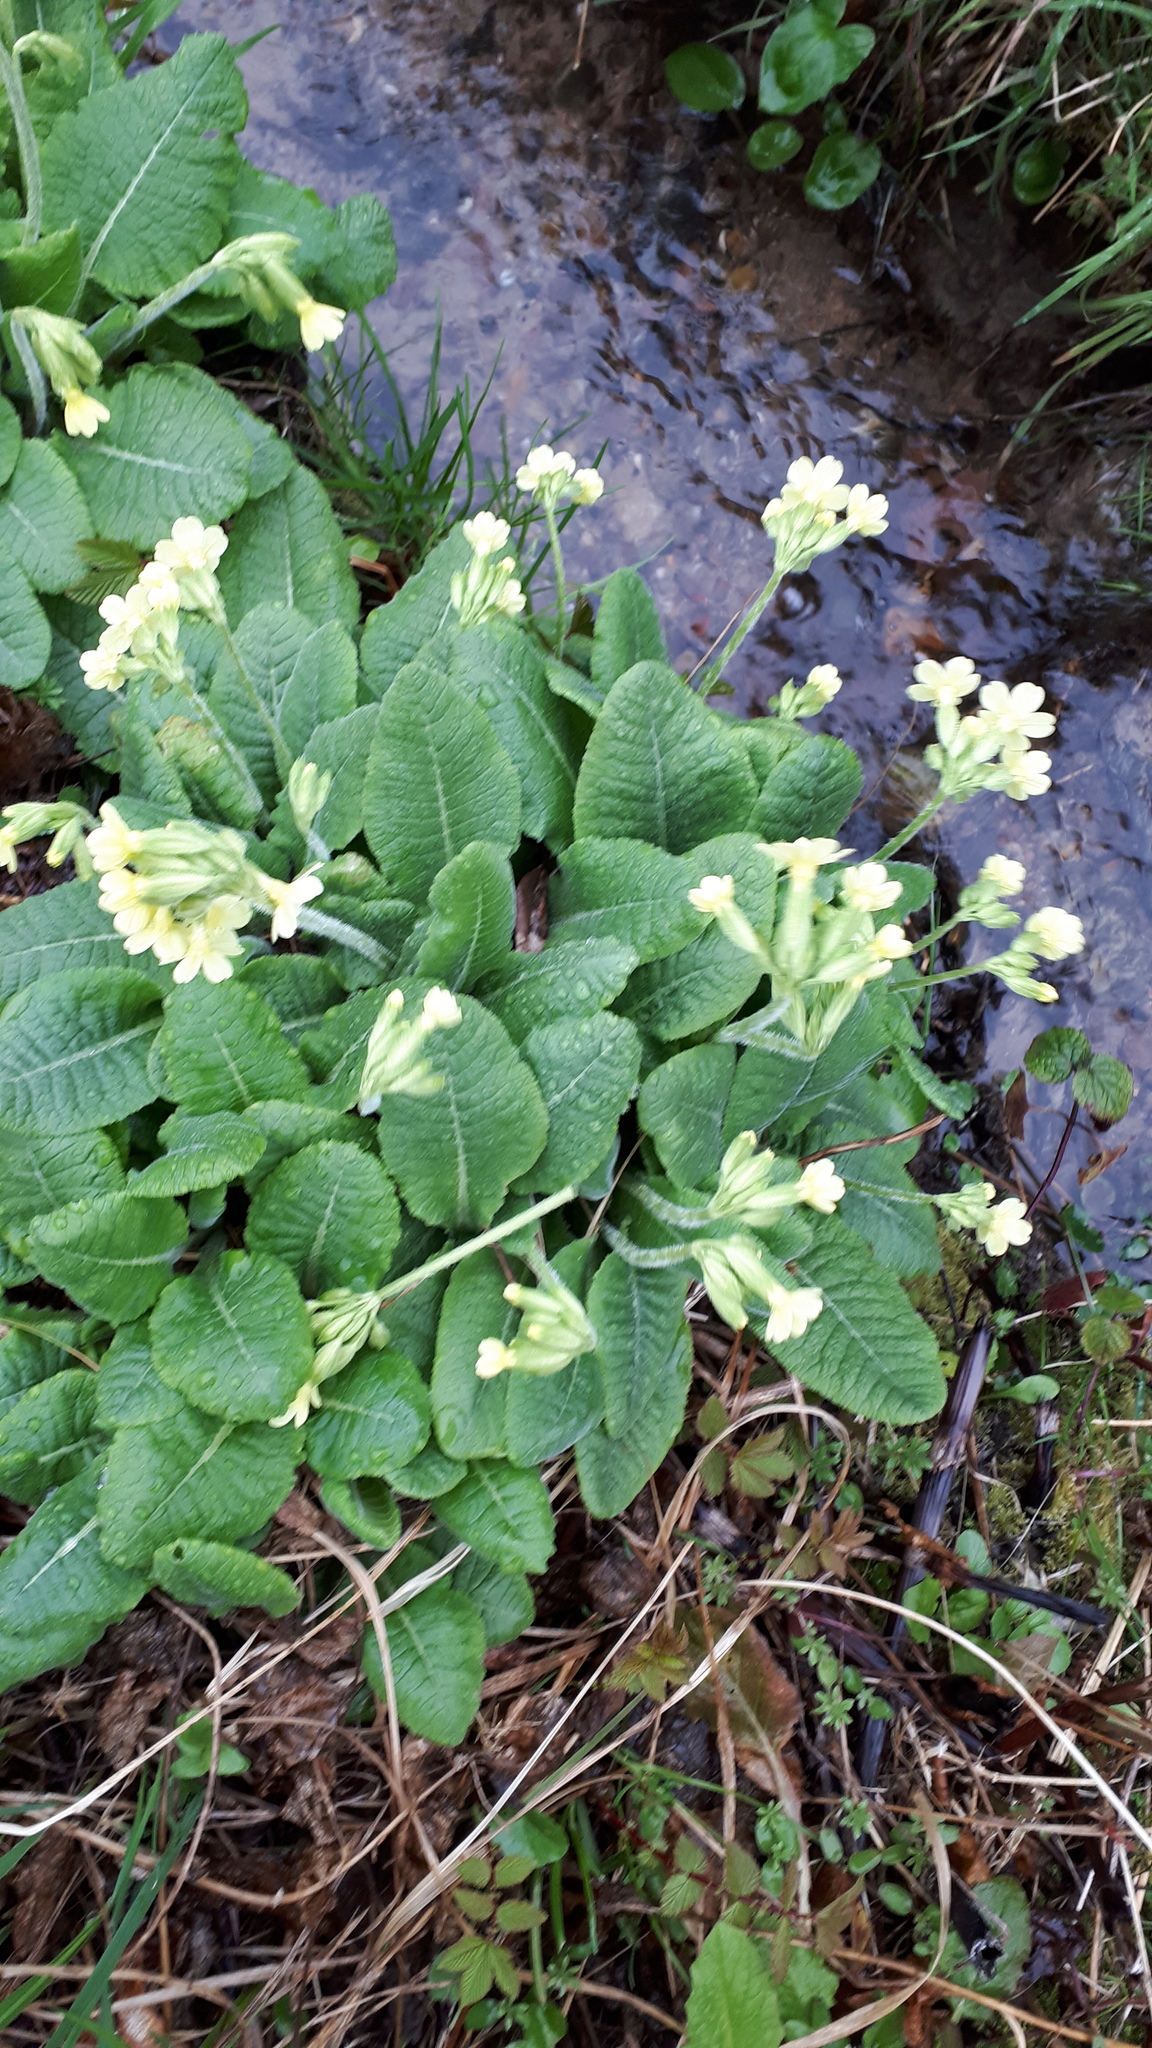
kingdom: Plantae
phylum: Tracheophyta
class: Magnoliopsida
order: Ericales
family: Primulaceae
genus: Primula
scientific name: Primula elatior
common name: Oxlip
